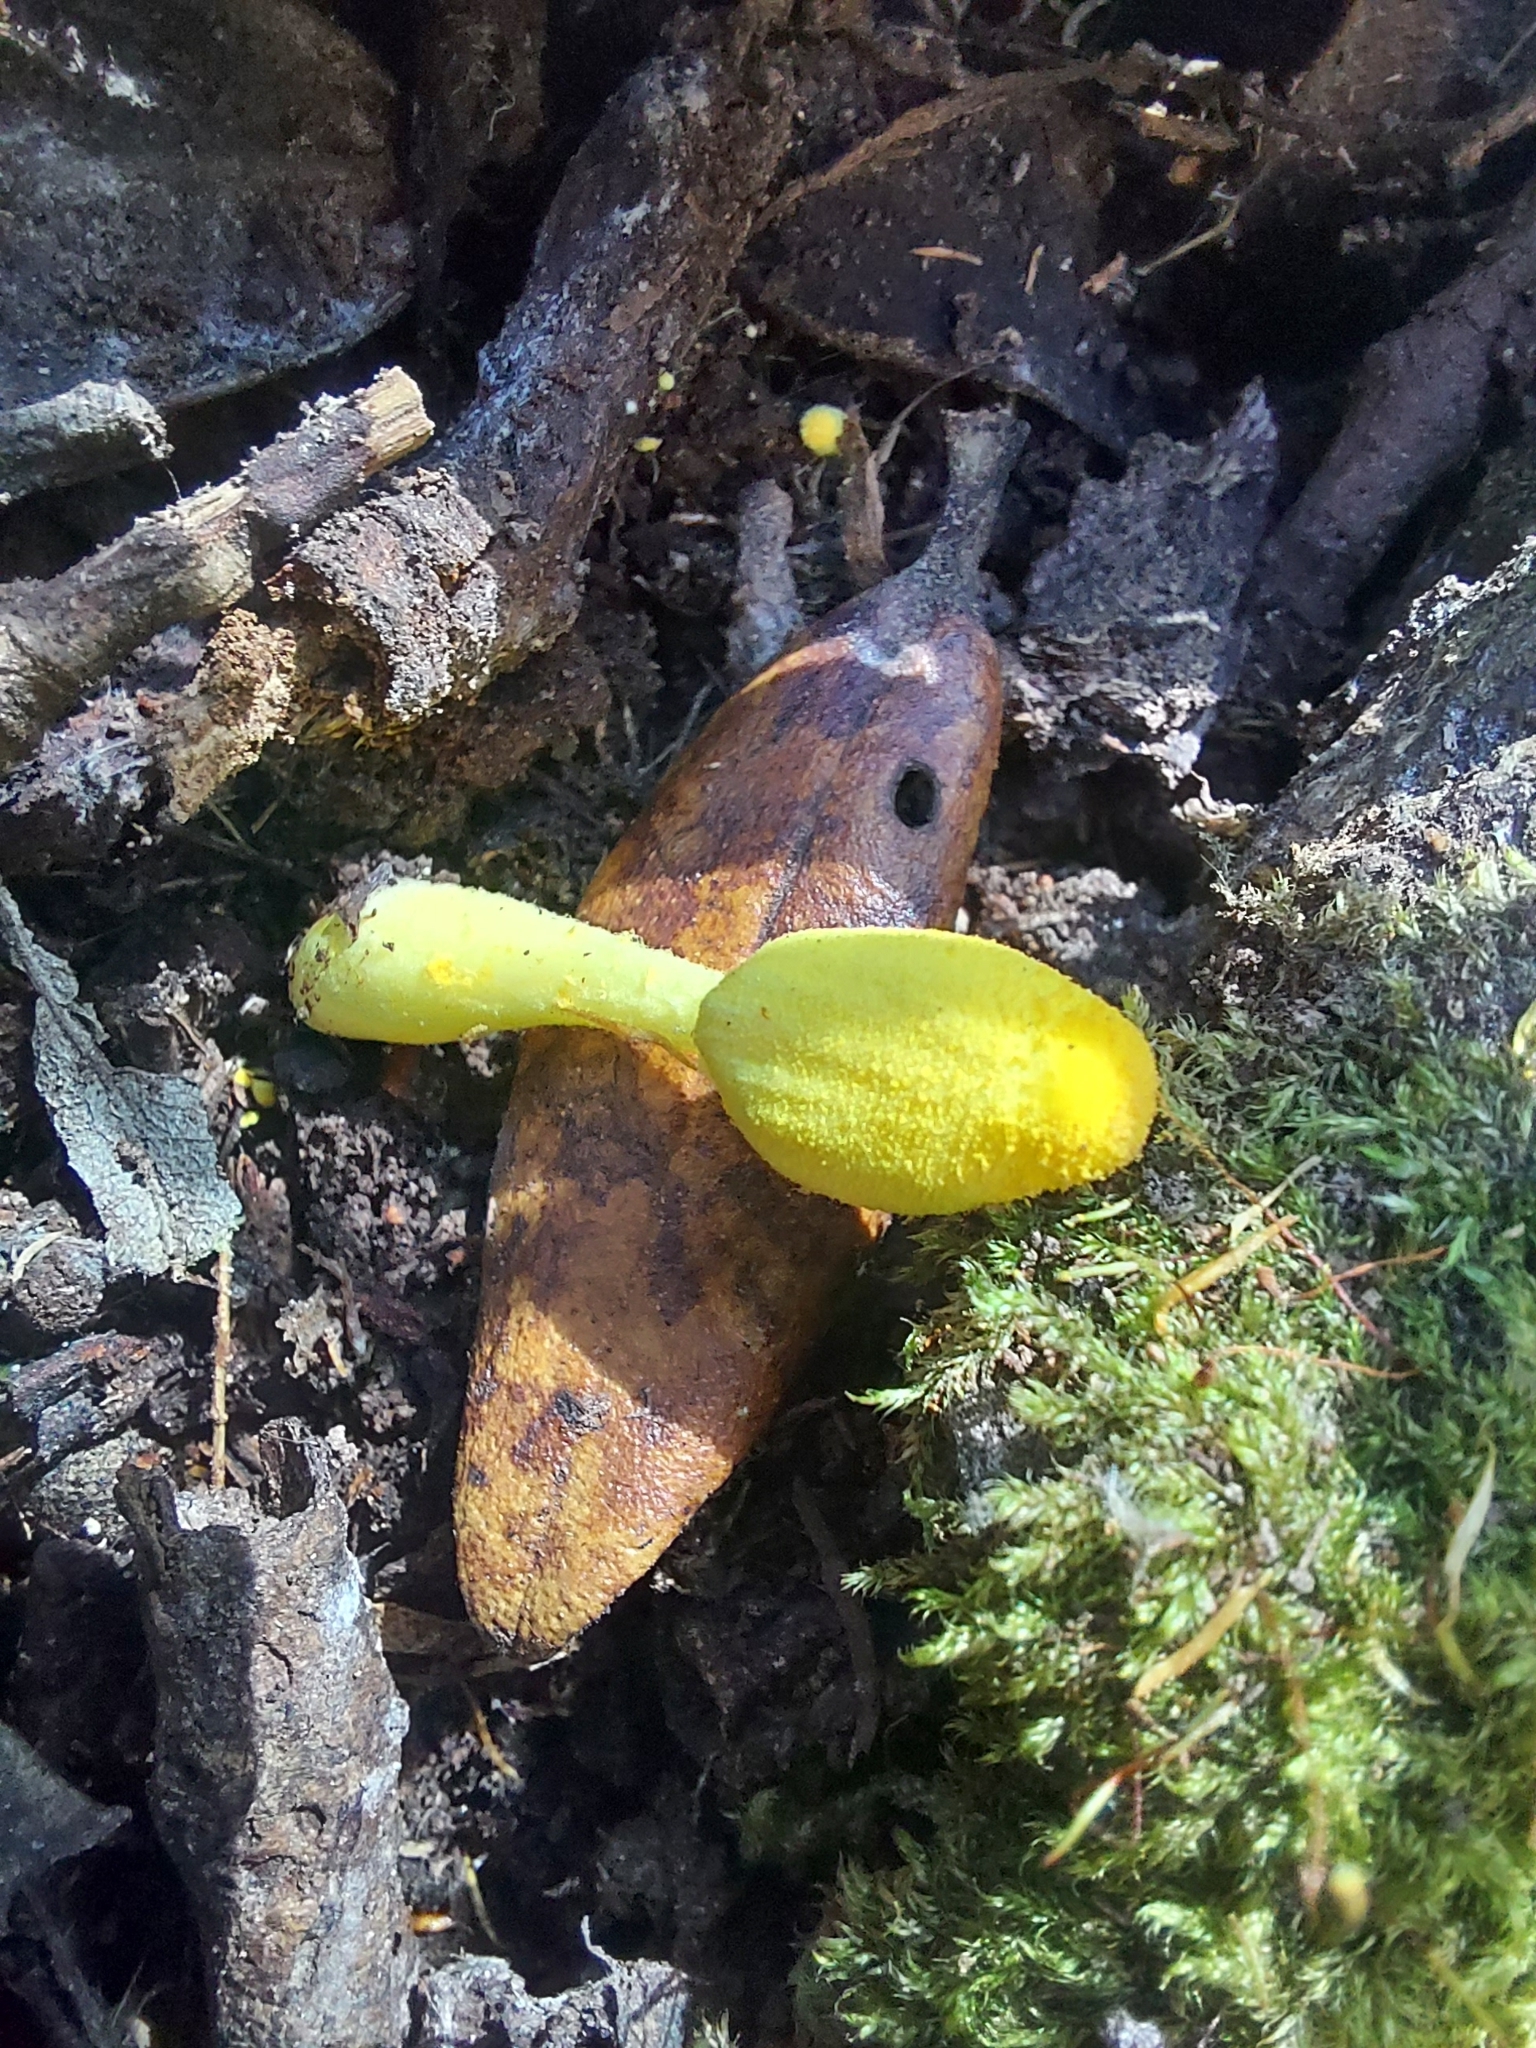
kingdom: Fungi
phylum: Basidiomycota
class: Agaricomycetes
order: Agaricales
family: Agaricaceae
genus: Leucocoprinus
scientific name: Leucocoprinus birnbaumii
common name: Plantpot dapperling
